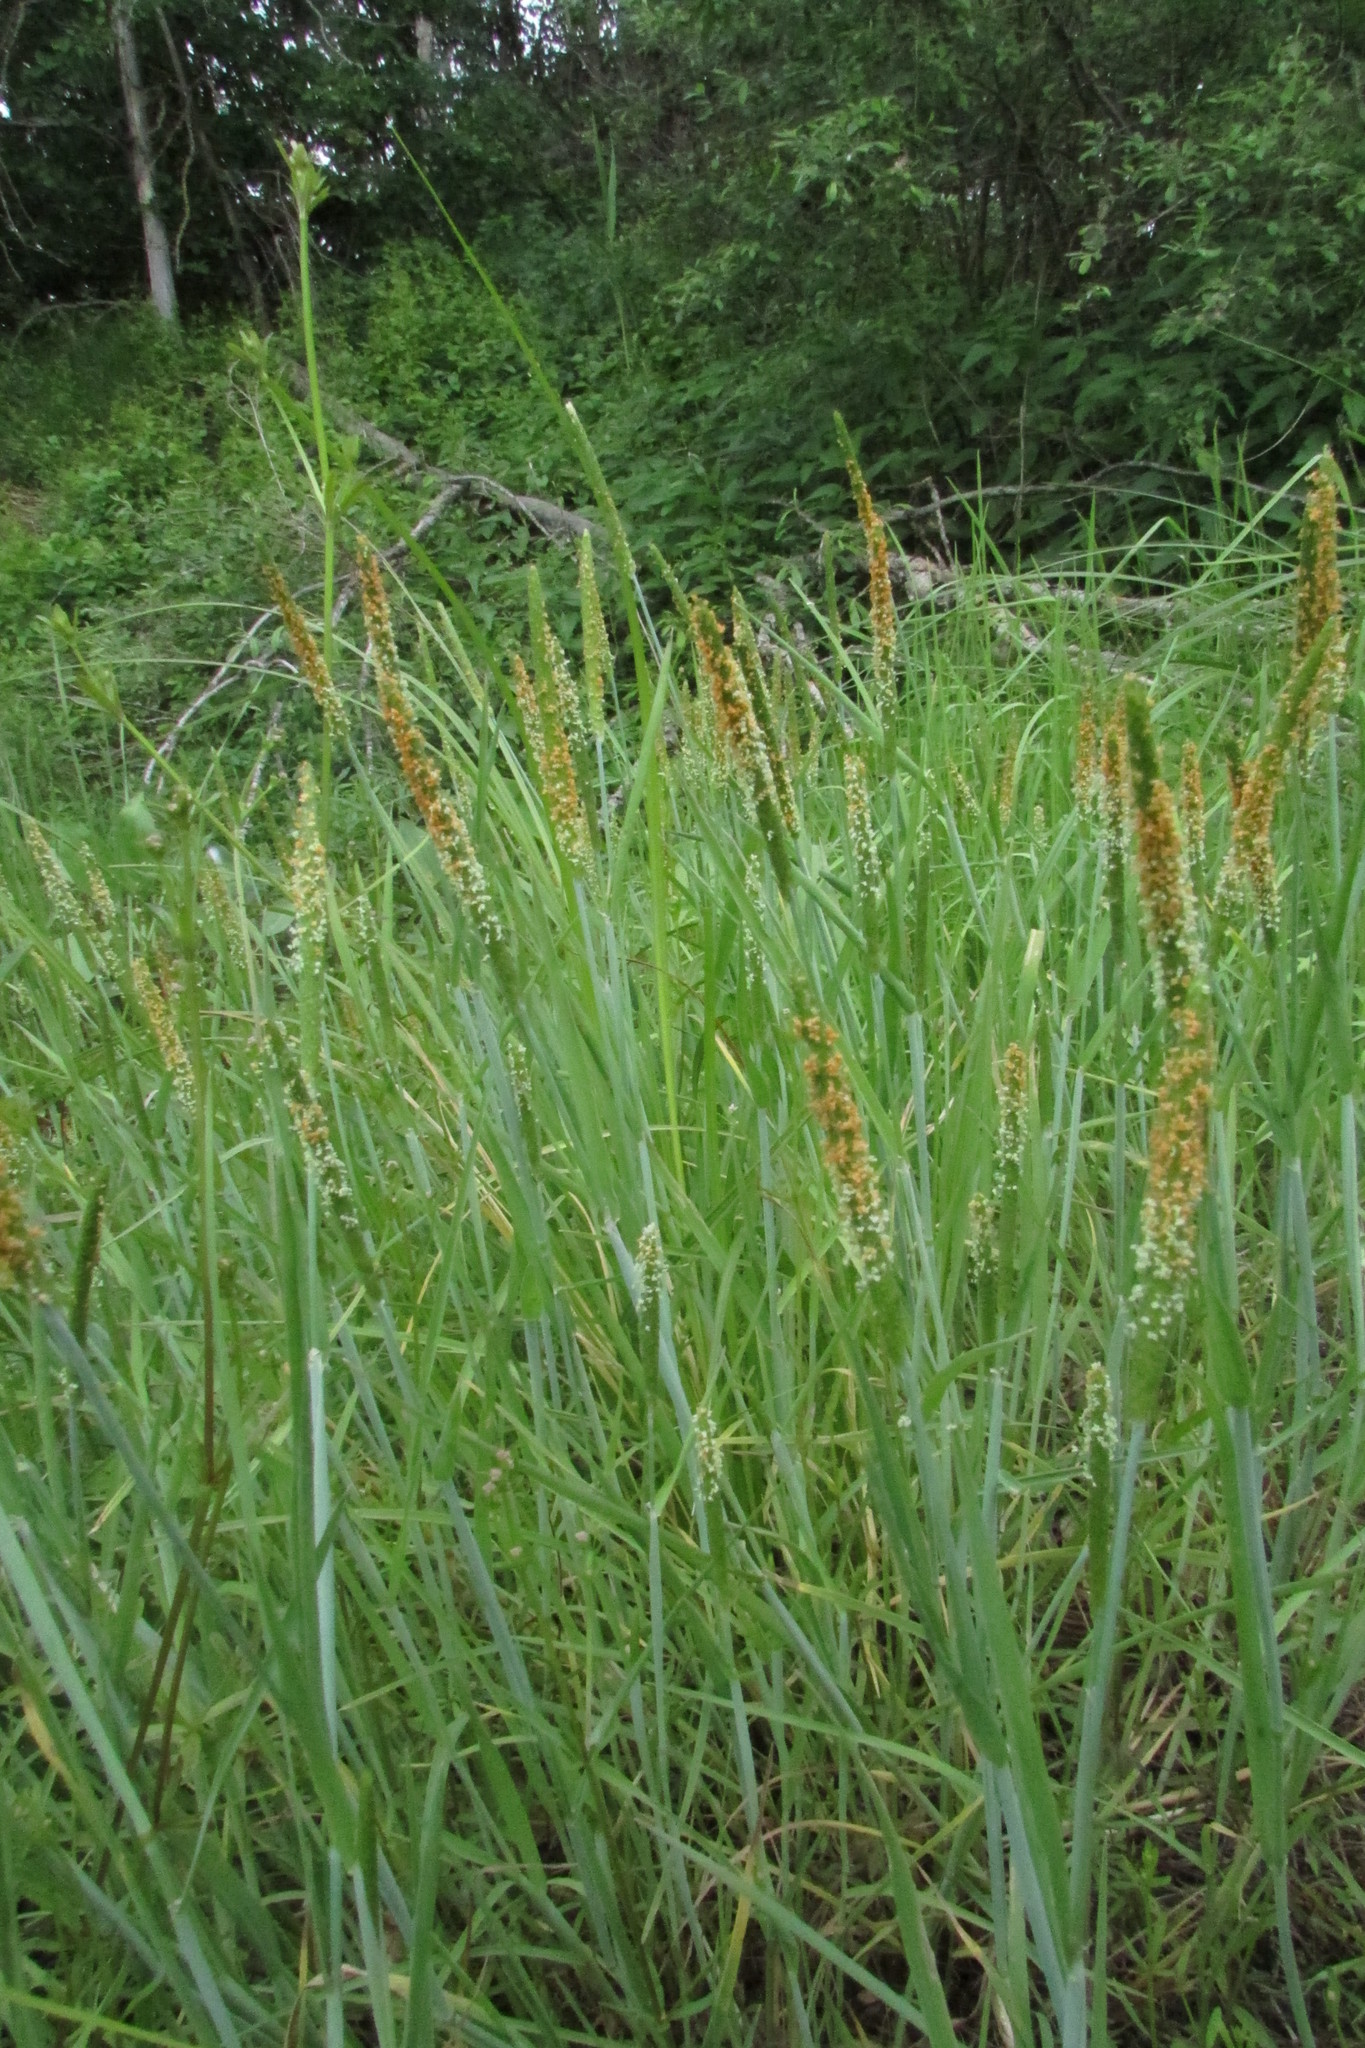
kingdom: Plantae
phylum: Tracheophyta
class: Liliopsida
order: Poales
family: Poaceae
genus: Alopecurus
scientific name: Alopecurus aequalis
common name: Orange foxtail
